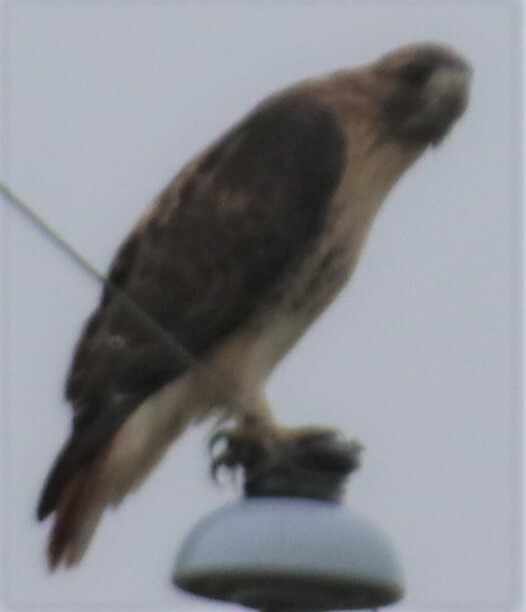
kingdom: Animalia
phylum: Chordata
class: Aves
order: Accipitriformes
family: Accipitridae
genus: Buteo
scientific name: Buteo jamaicensis
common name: Red-tailed hawk
